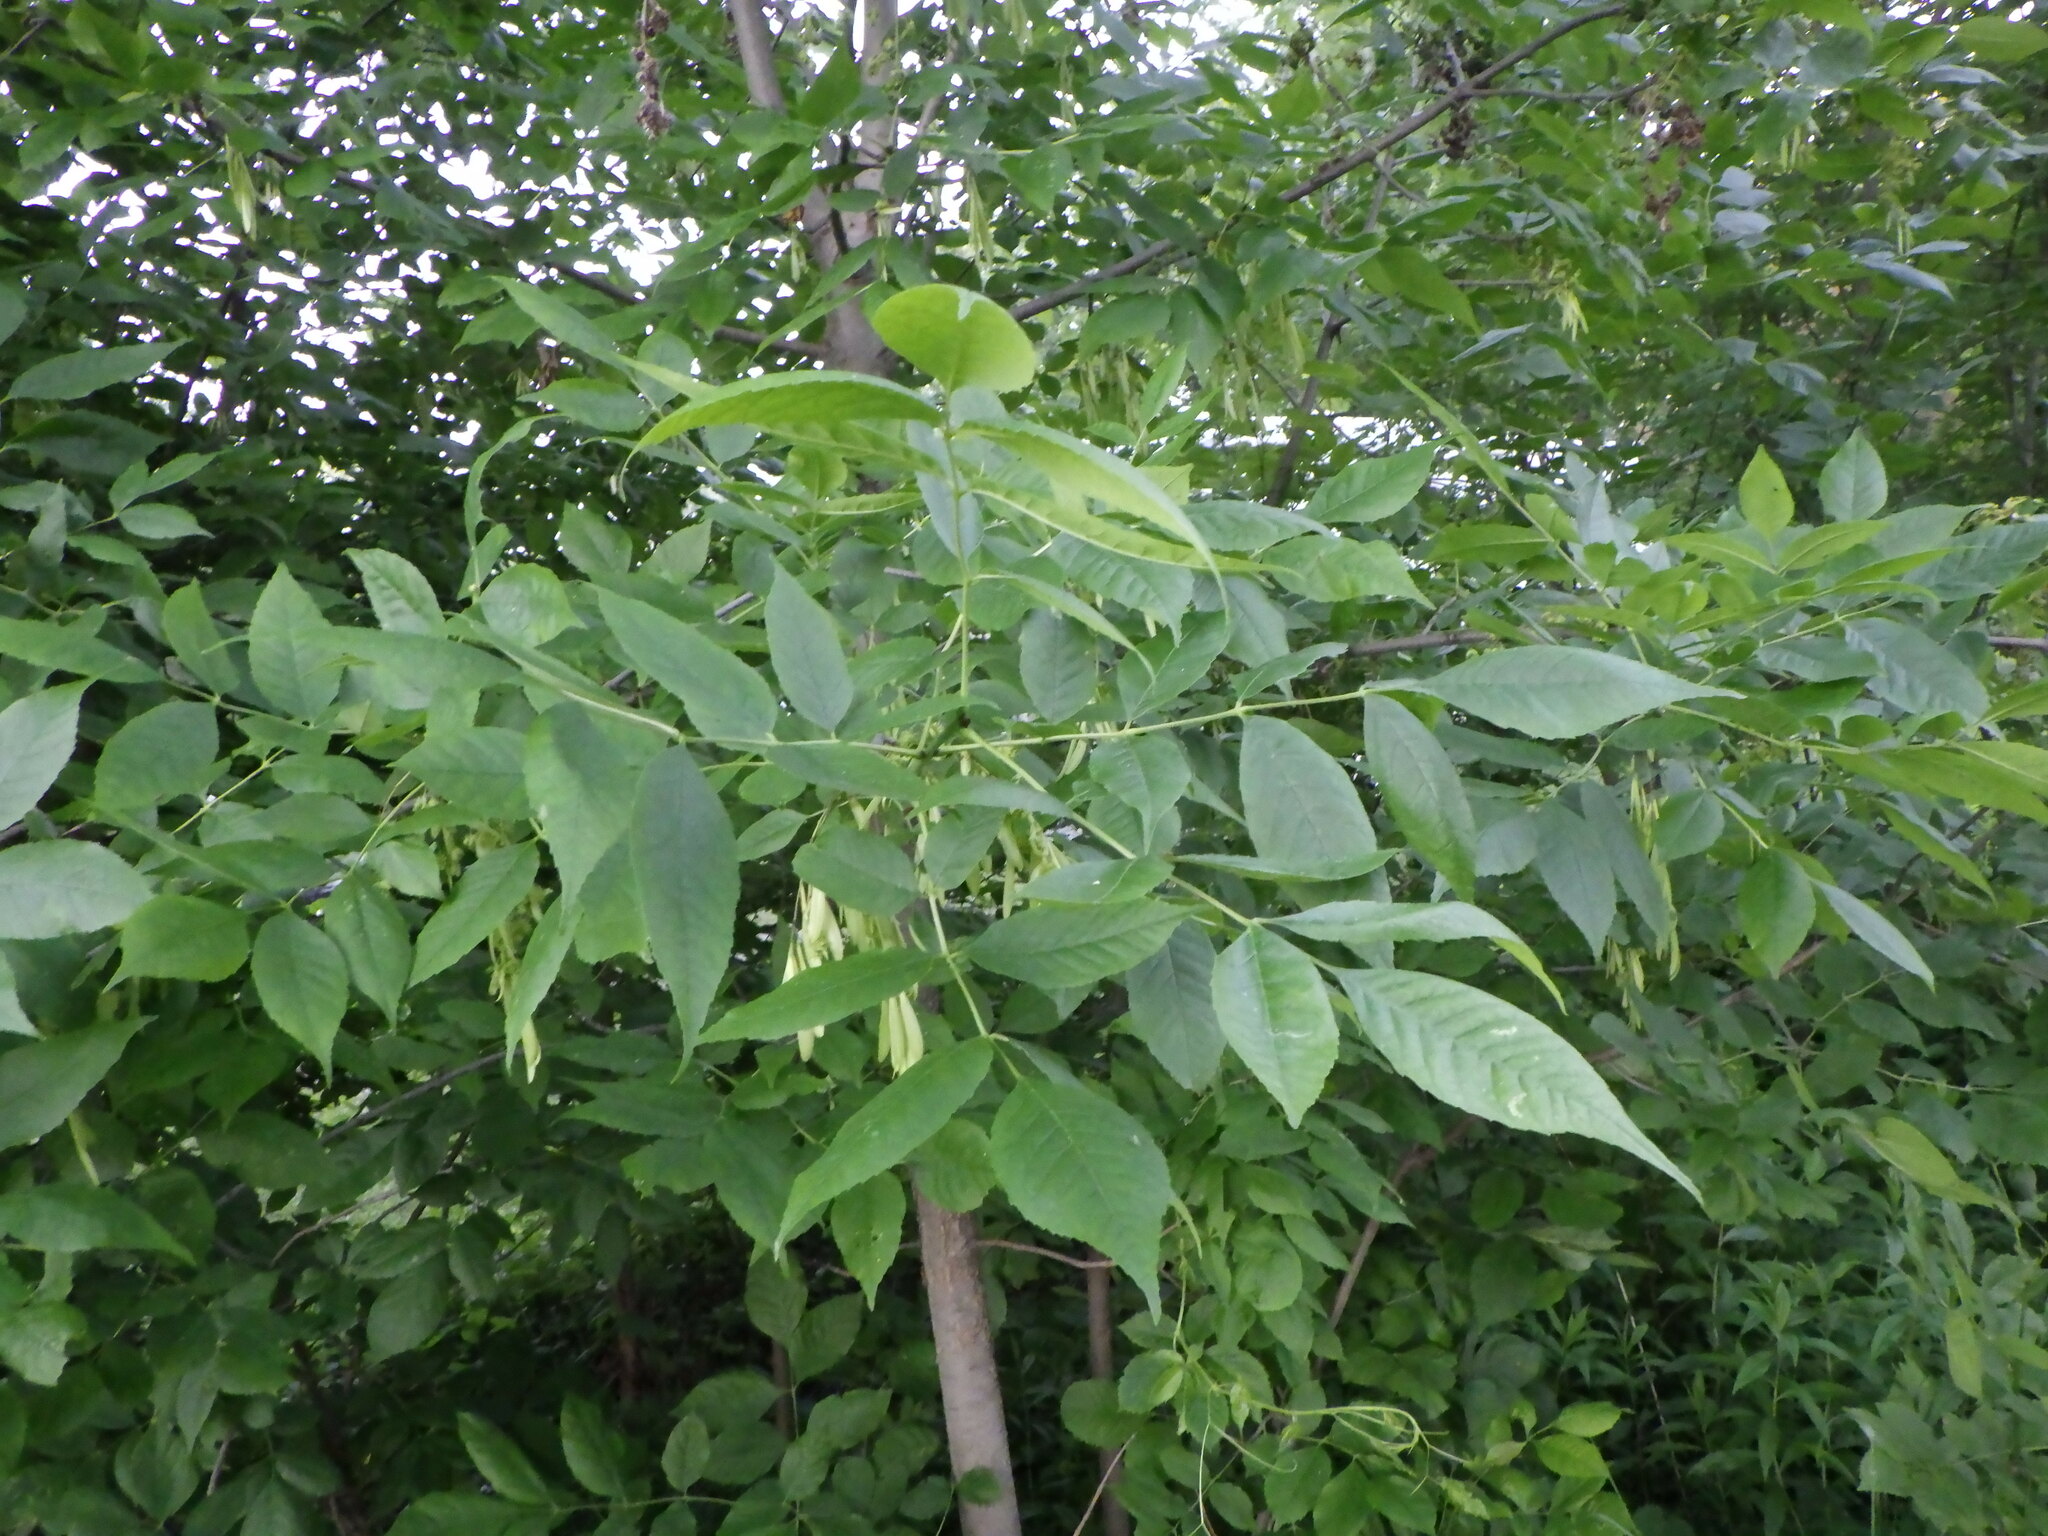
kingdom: Plantae
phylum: Tracheophyta
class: Magnoliopsida
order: Lamiales
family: Oleaceae
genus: Fraxinus
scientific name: Fraxinus pennsylvanica
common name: Green ash
